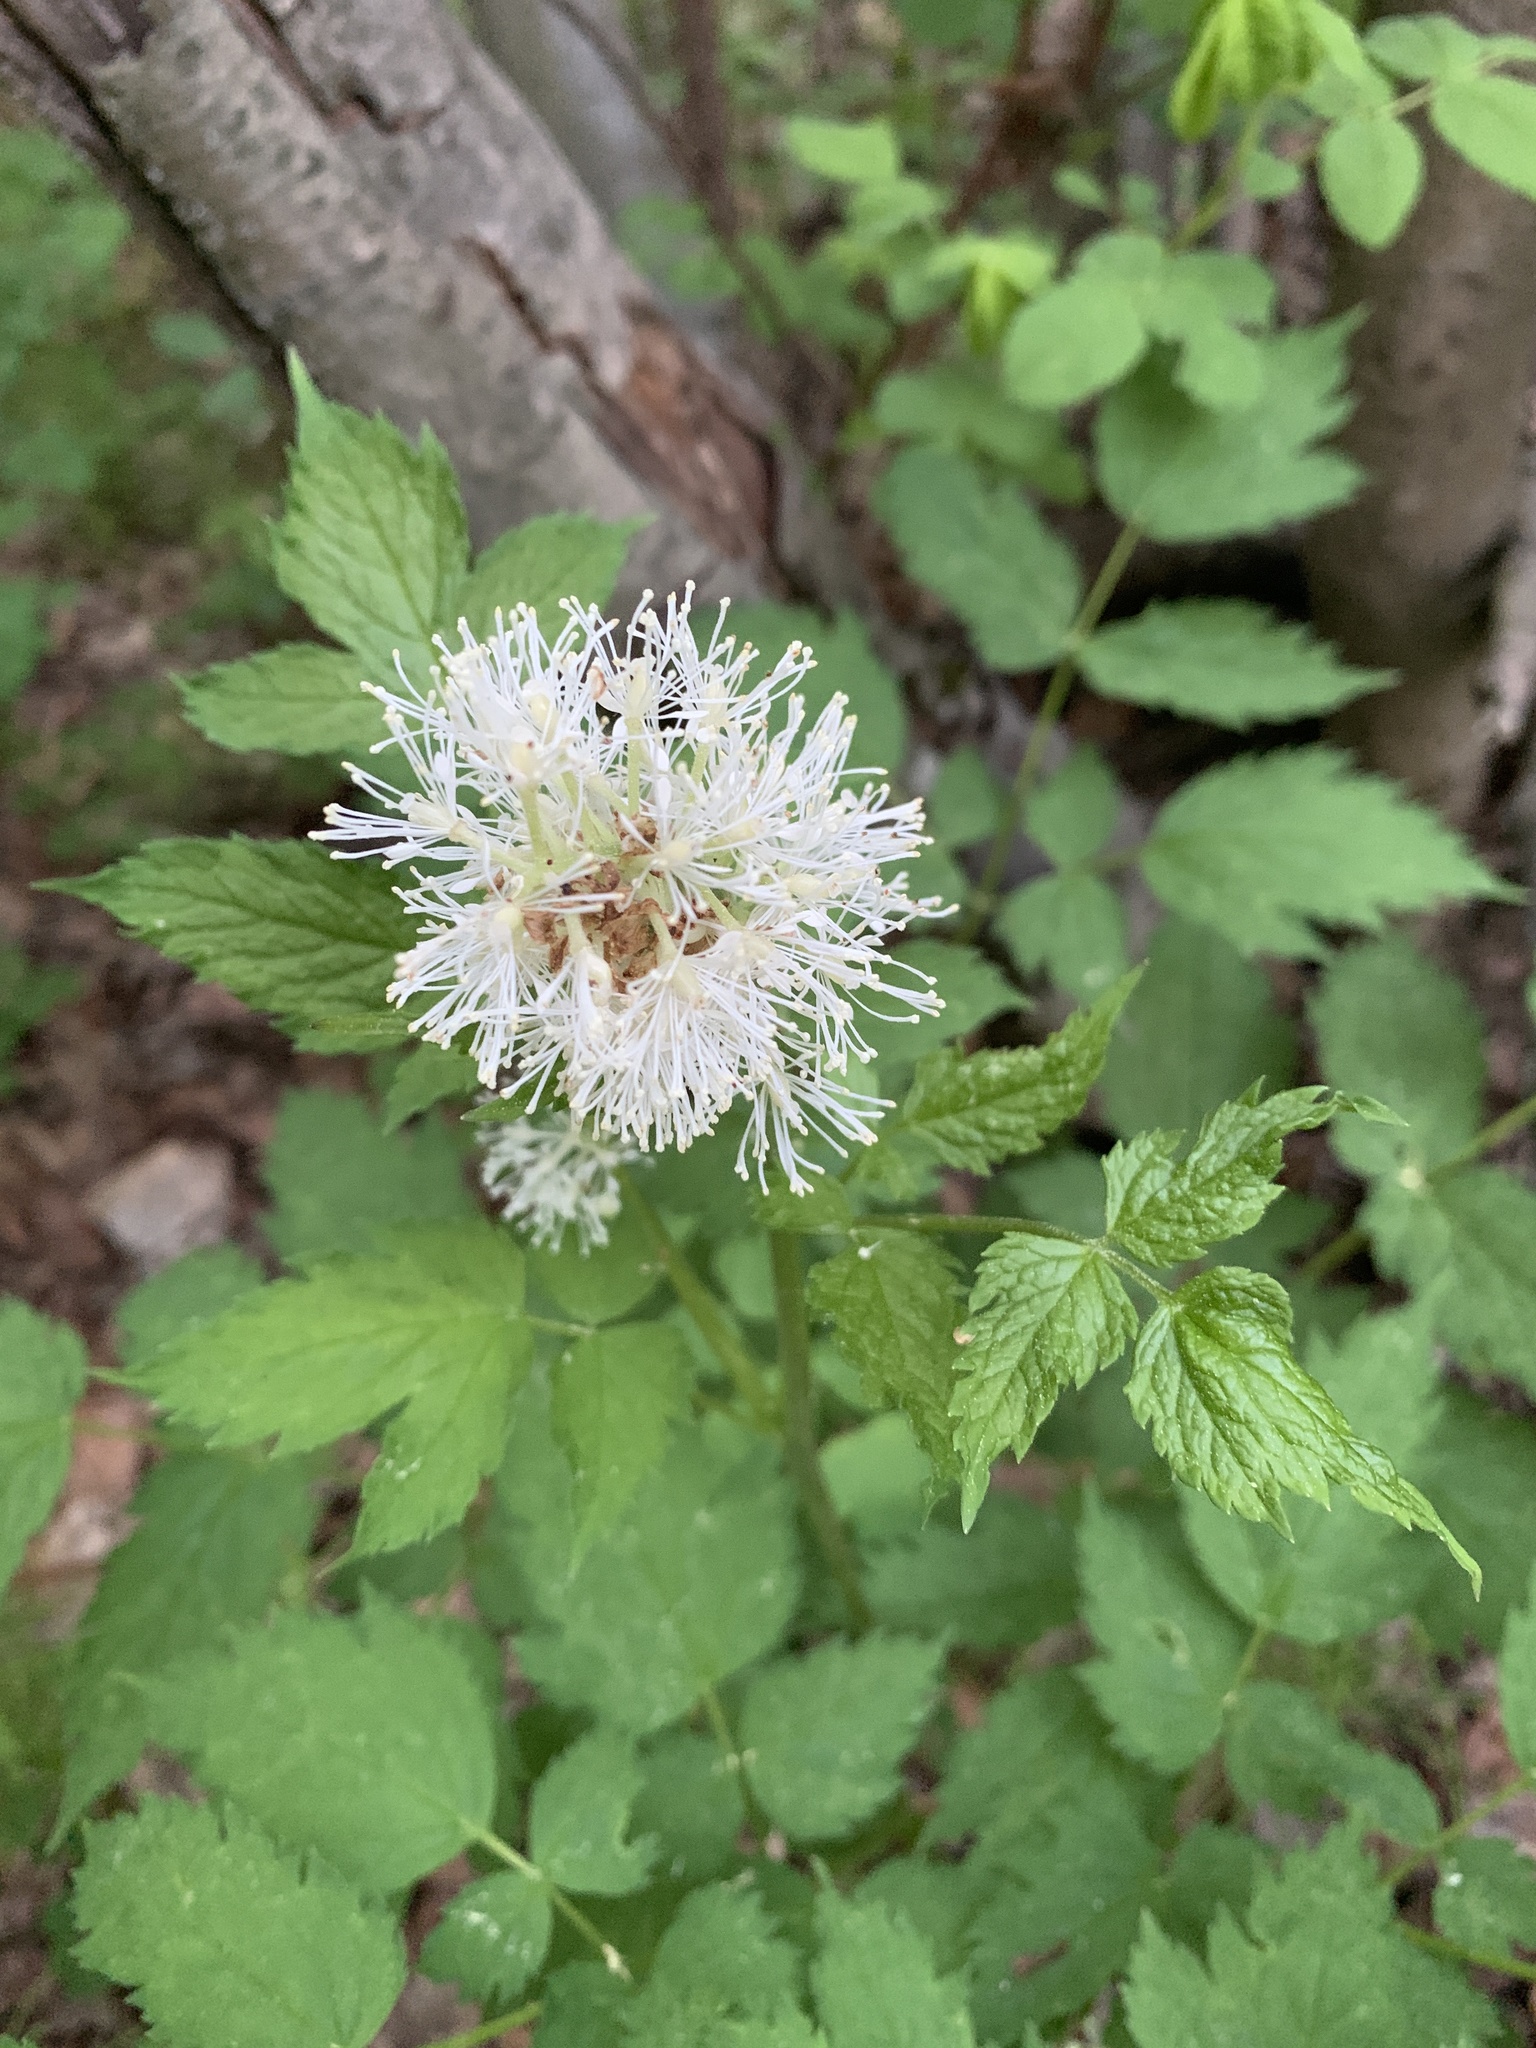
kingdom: Plantae
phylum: Tracheophyta
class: Magnoliopsida
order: Ranunculales
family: Ranunculaceae
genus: Actaea
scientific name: Actaea rubra
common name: Red baneberry
